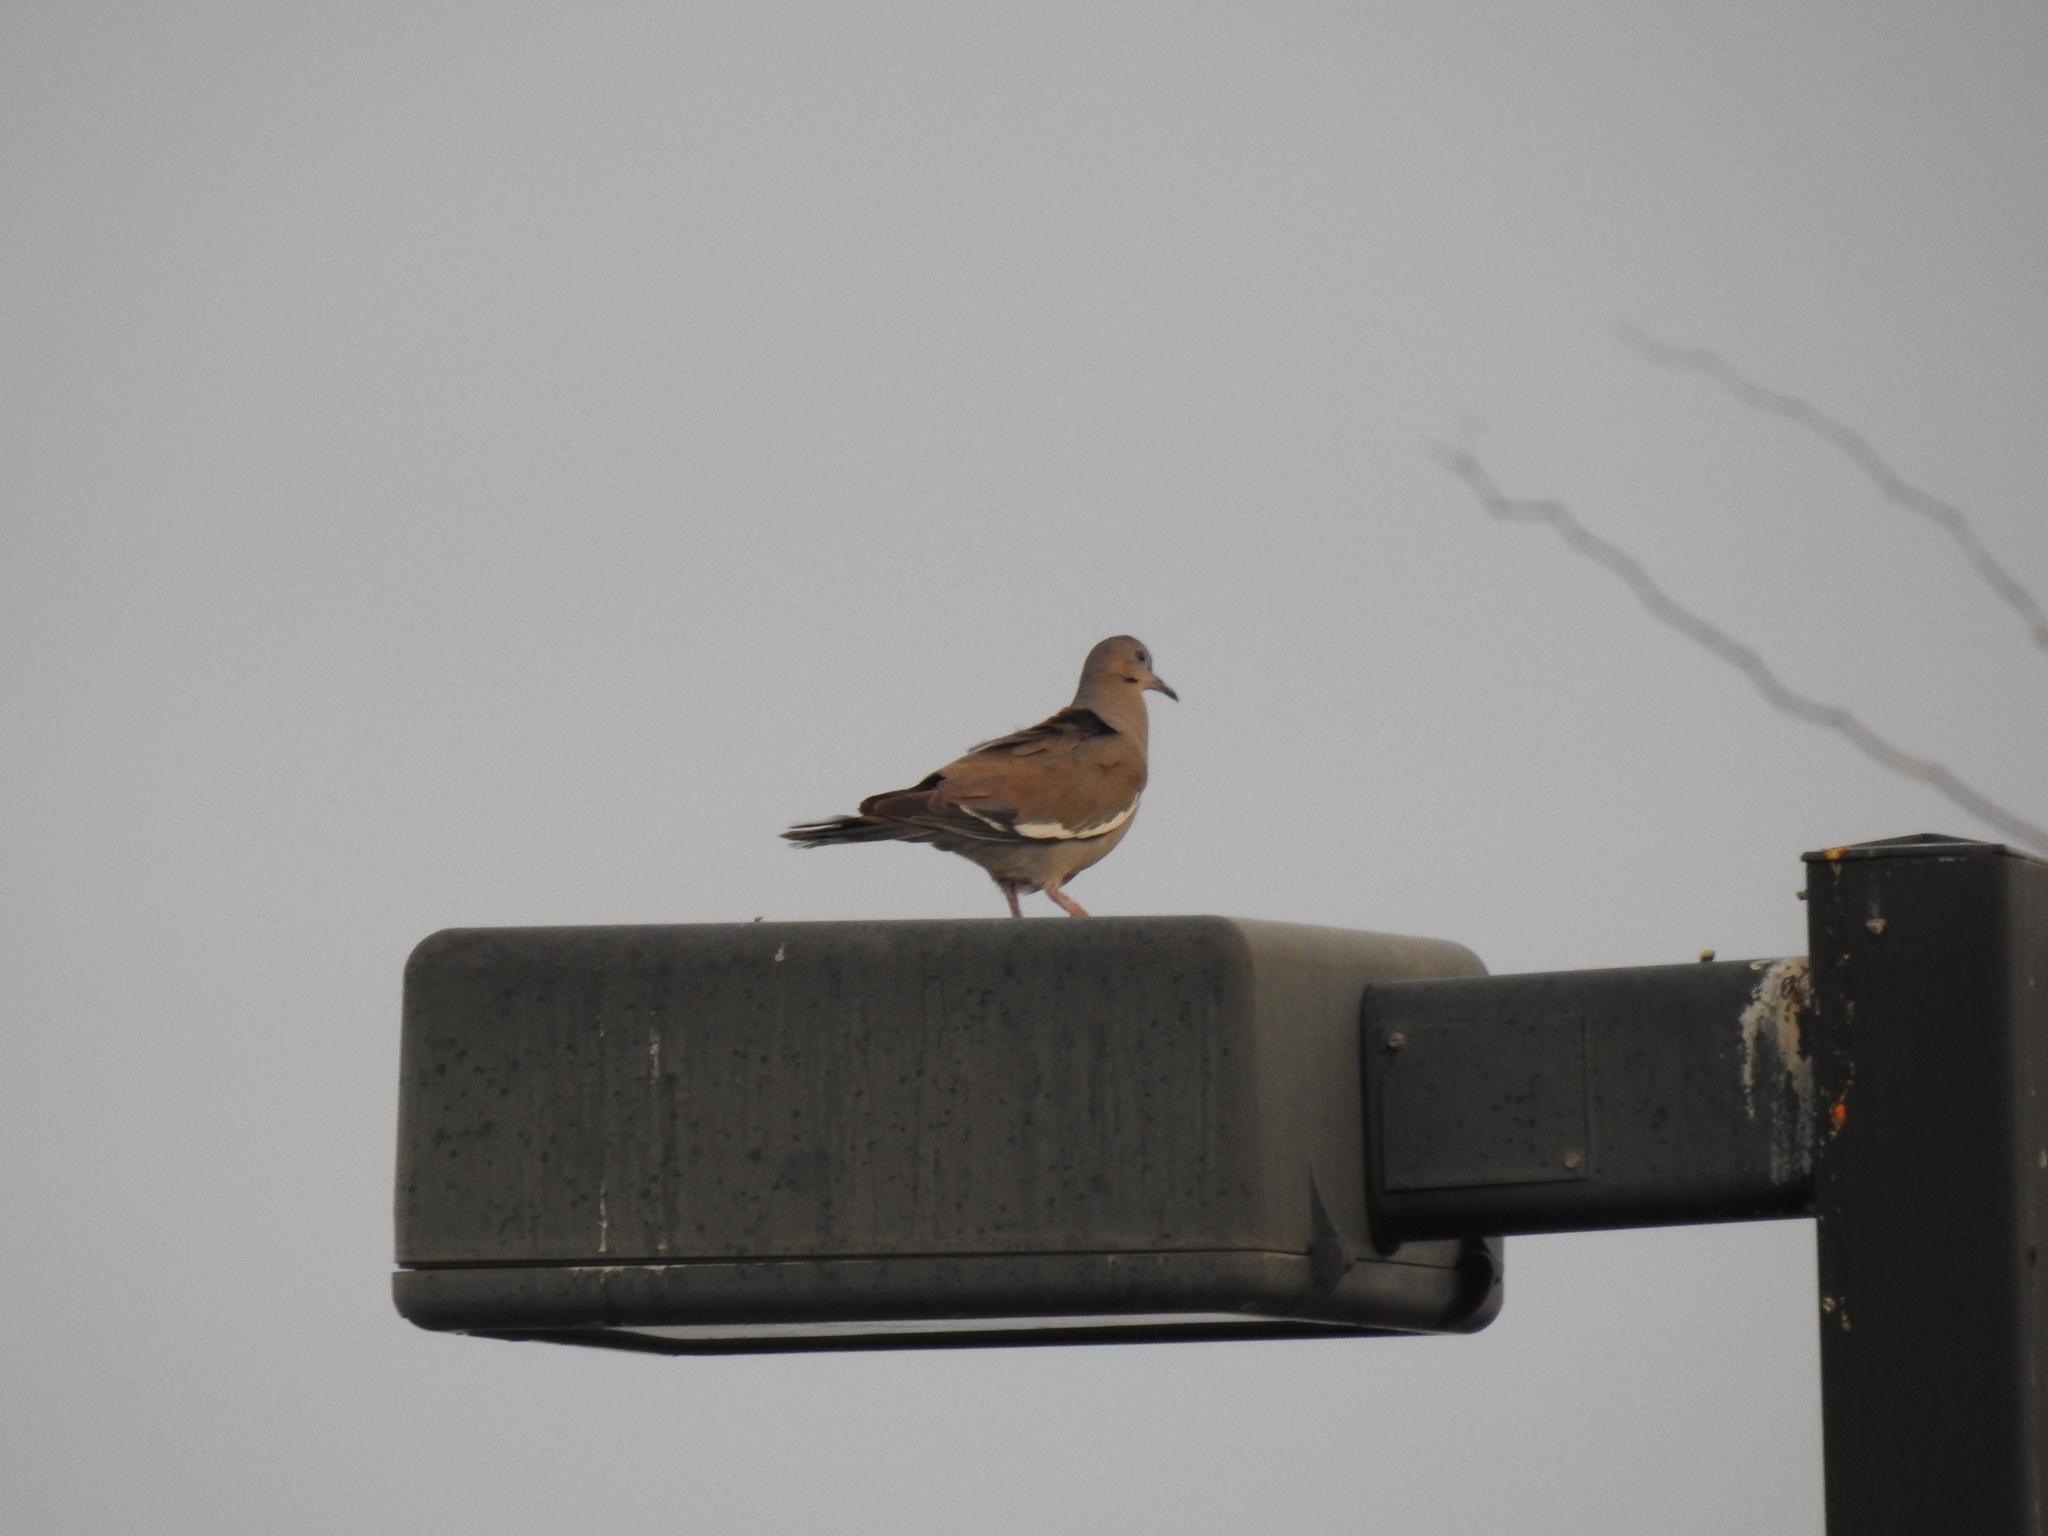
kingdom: Animalia
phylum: Chordata
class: Aves
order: Columbiformes
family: Columbidae
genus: Zenaida
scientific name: Zenaida asiatica
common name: White-winged dove
